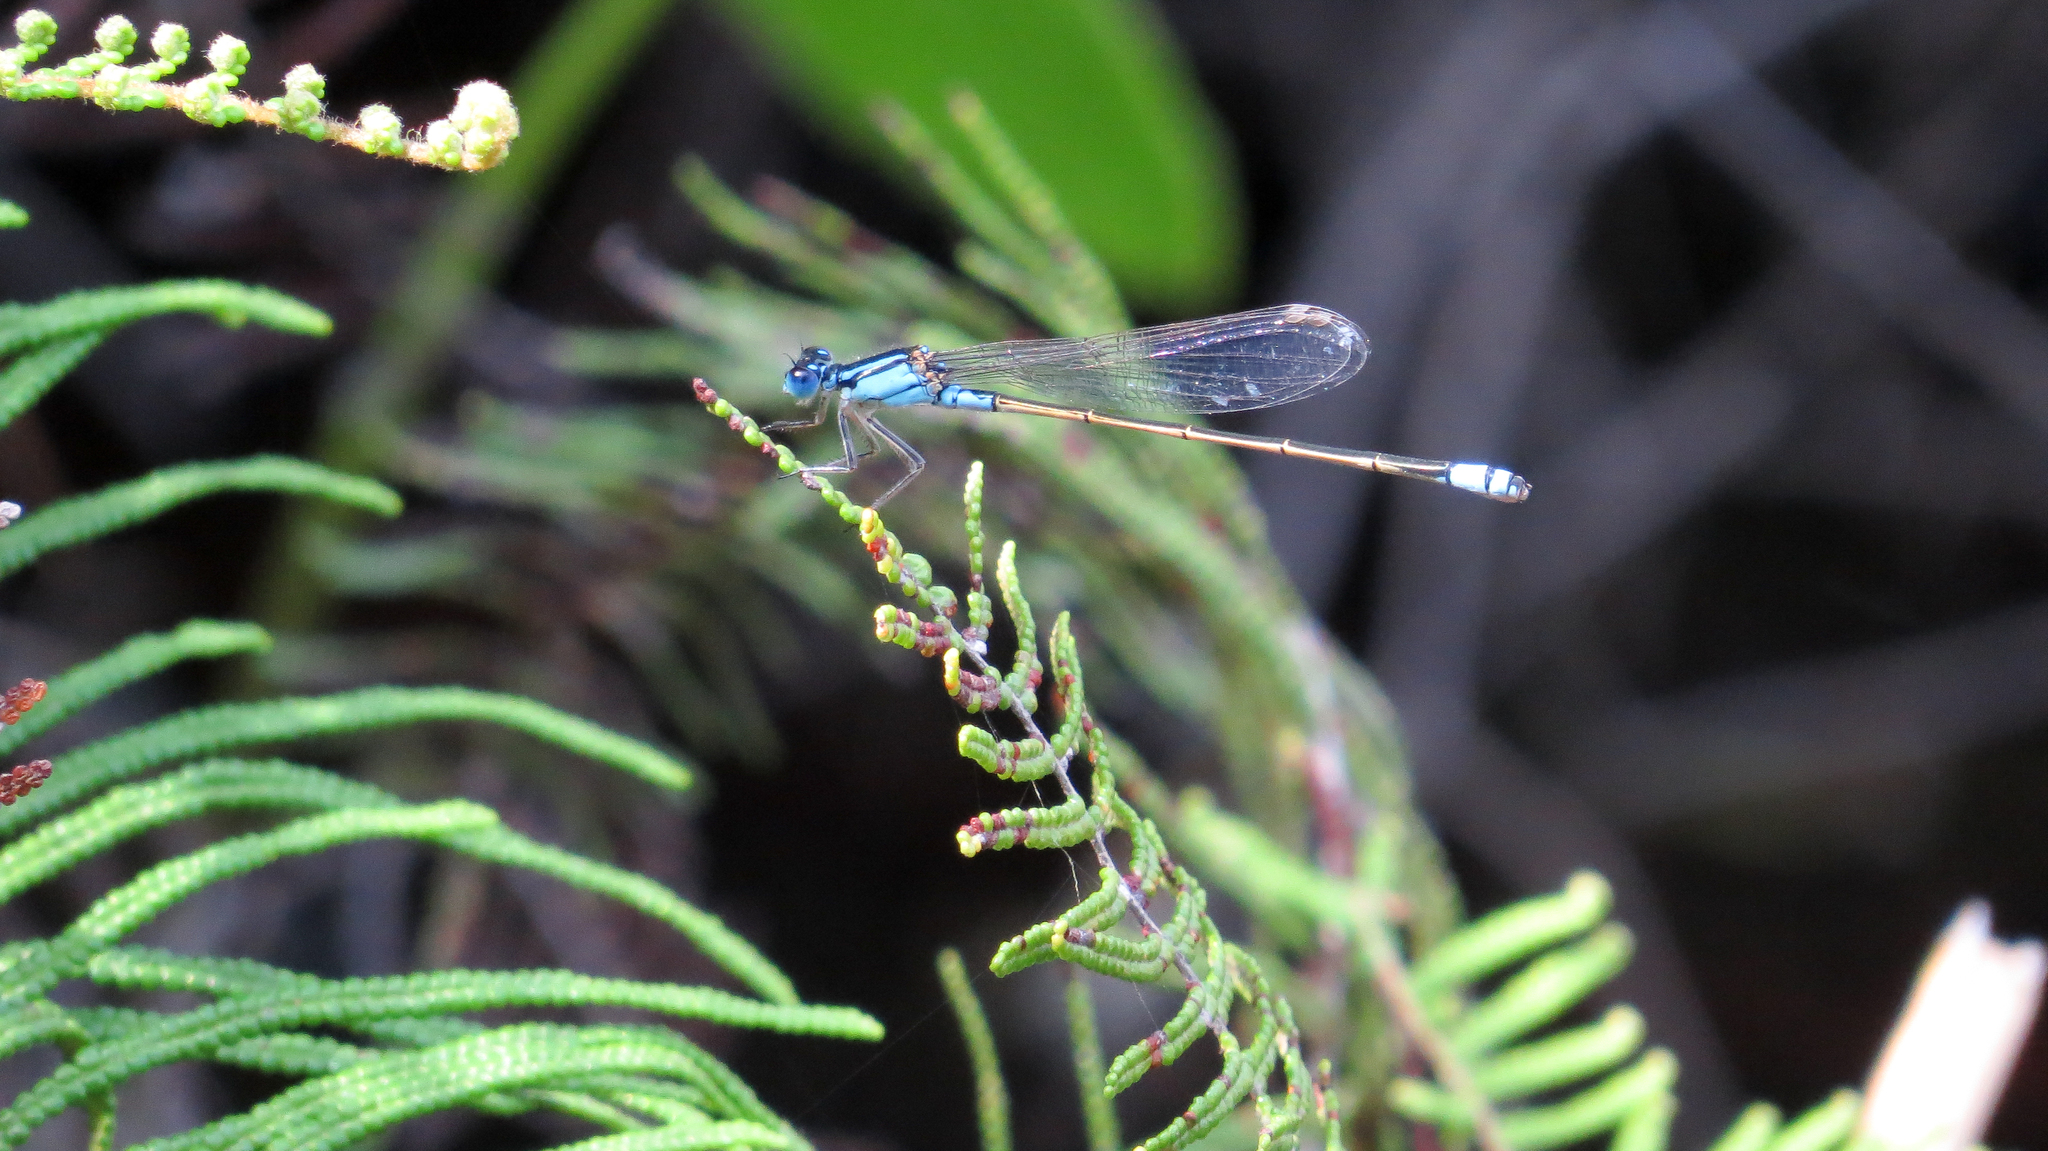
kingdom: Animalia
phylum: Arthropoda
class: Insecta
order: Odonata
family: Coenagrionidae
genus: Ischnura
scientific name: Ischnura heterosticta
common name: Common bluetail
